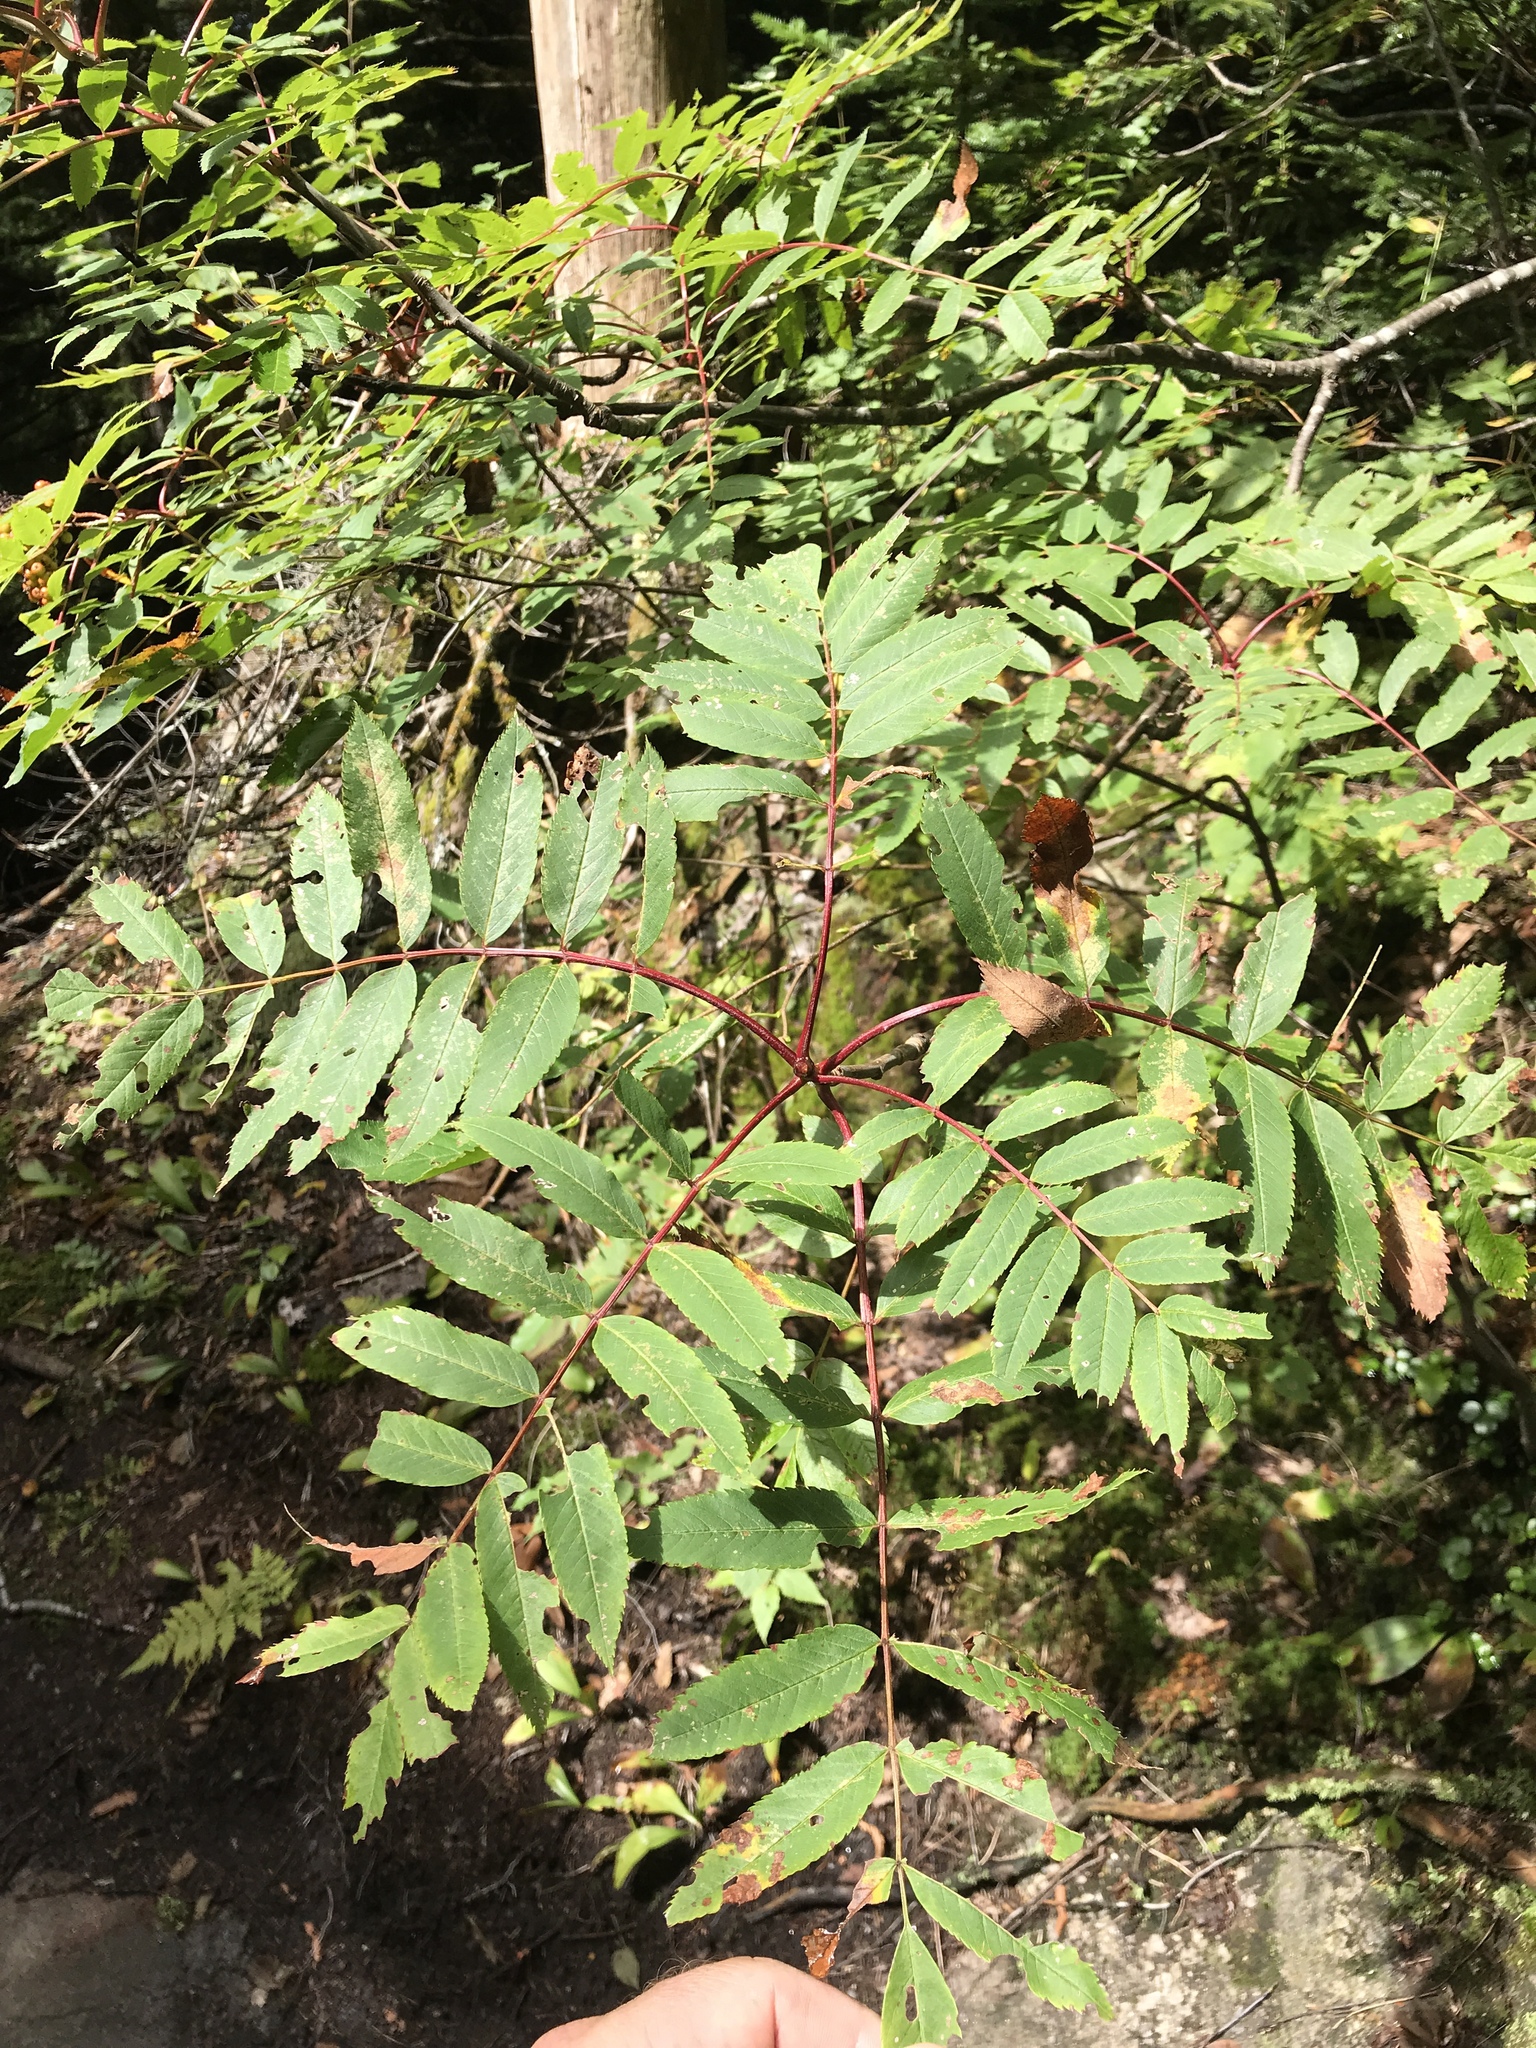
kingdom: Plantae
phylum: Tracheophyta
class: Magnoliopsida
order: Rosales
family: Rosaceae
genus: Sorbus
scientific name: Sorbus americana
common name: American mountain-ash
